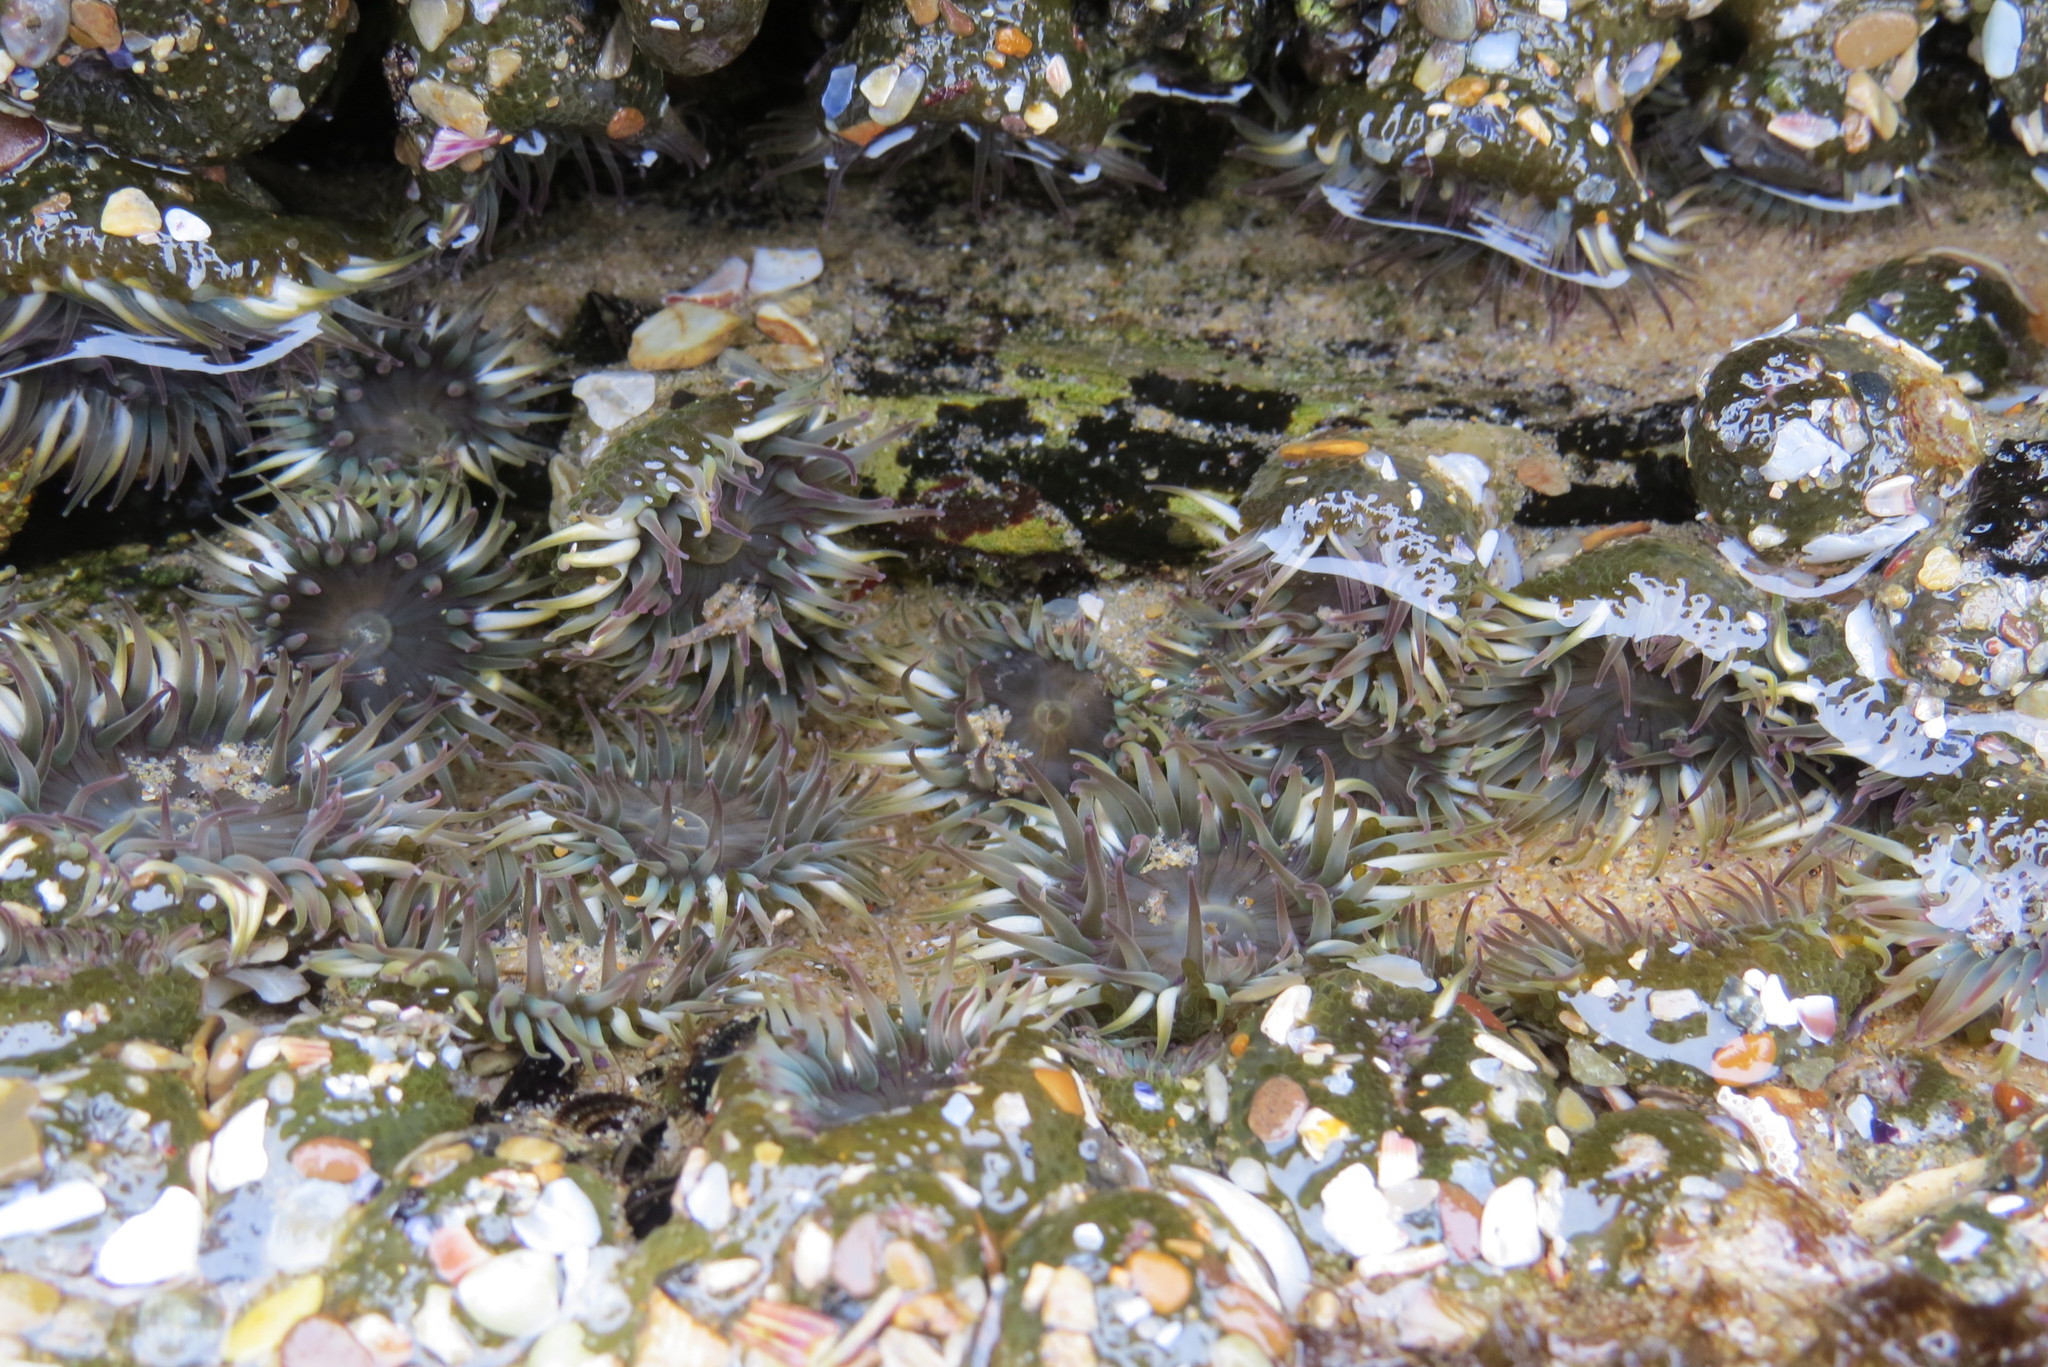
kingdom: Animalia
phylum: Cnidaria
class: Anthozoa
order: Actiniaria
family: Actiniidae
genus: Anthopleura
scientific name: Anthopleura elegantissima
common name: Clonal anemone
